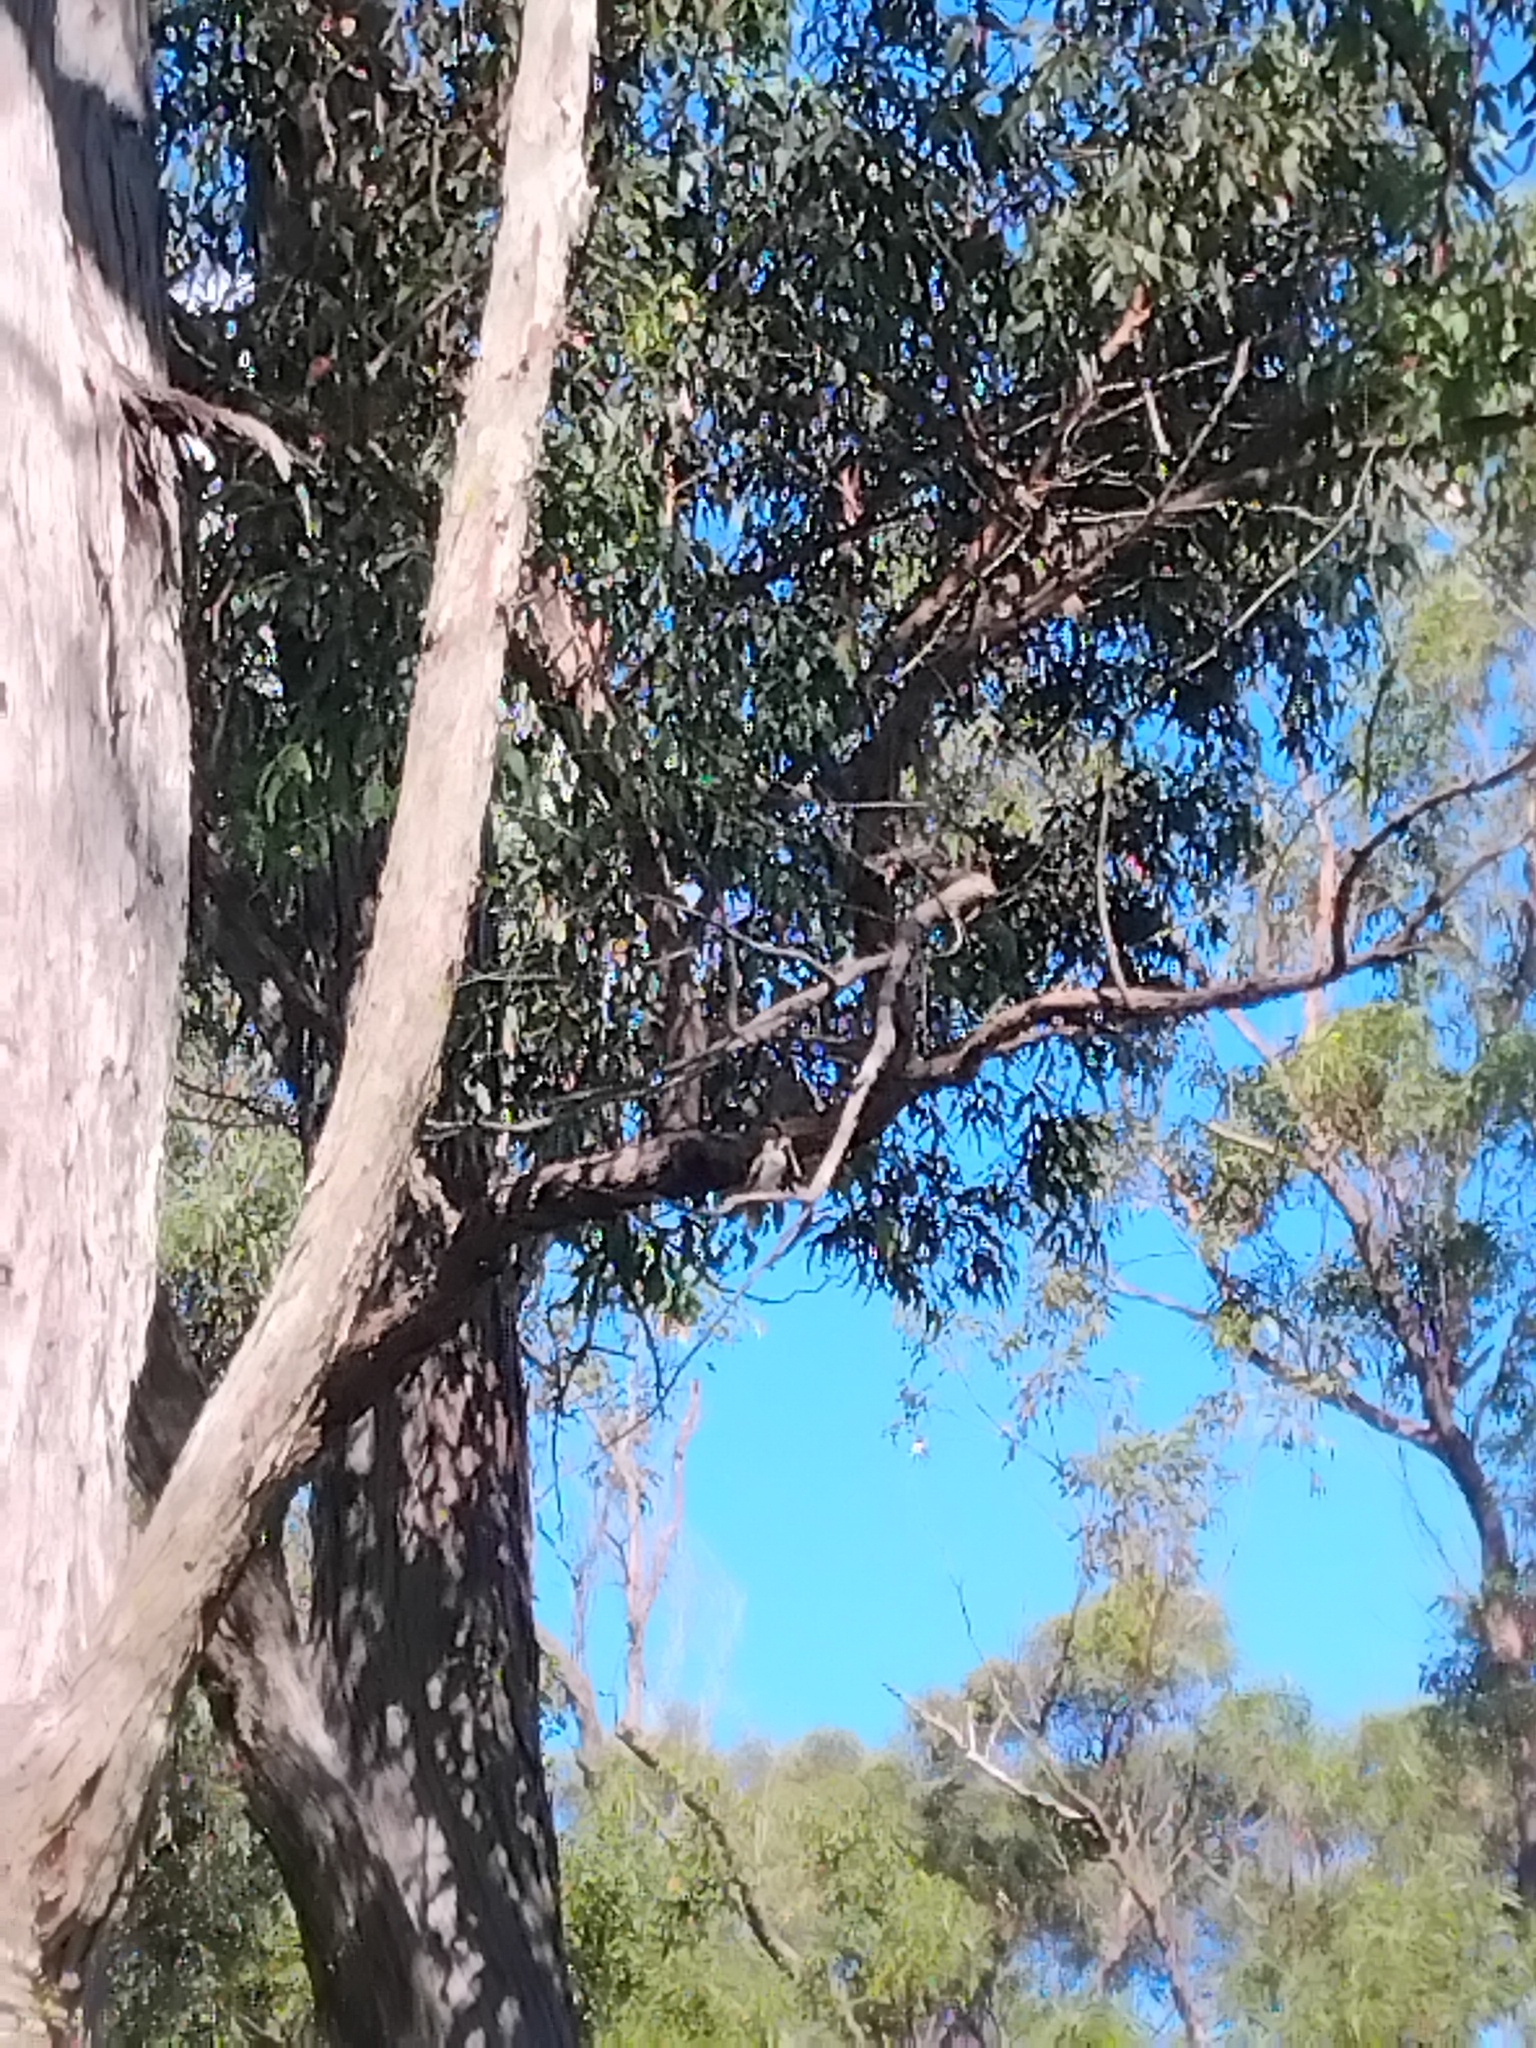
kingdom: Animalia
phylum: Chordata
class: Aves
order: Passeriformes
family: Meliphagidae
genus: Manorina
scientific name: Manorina melanocephala
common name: Noisy miner
